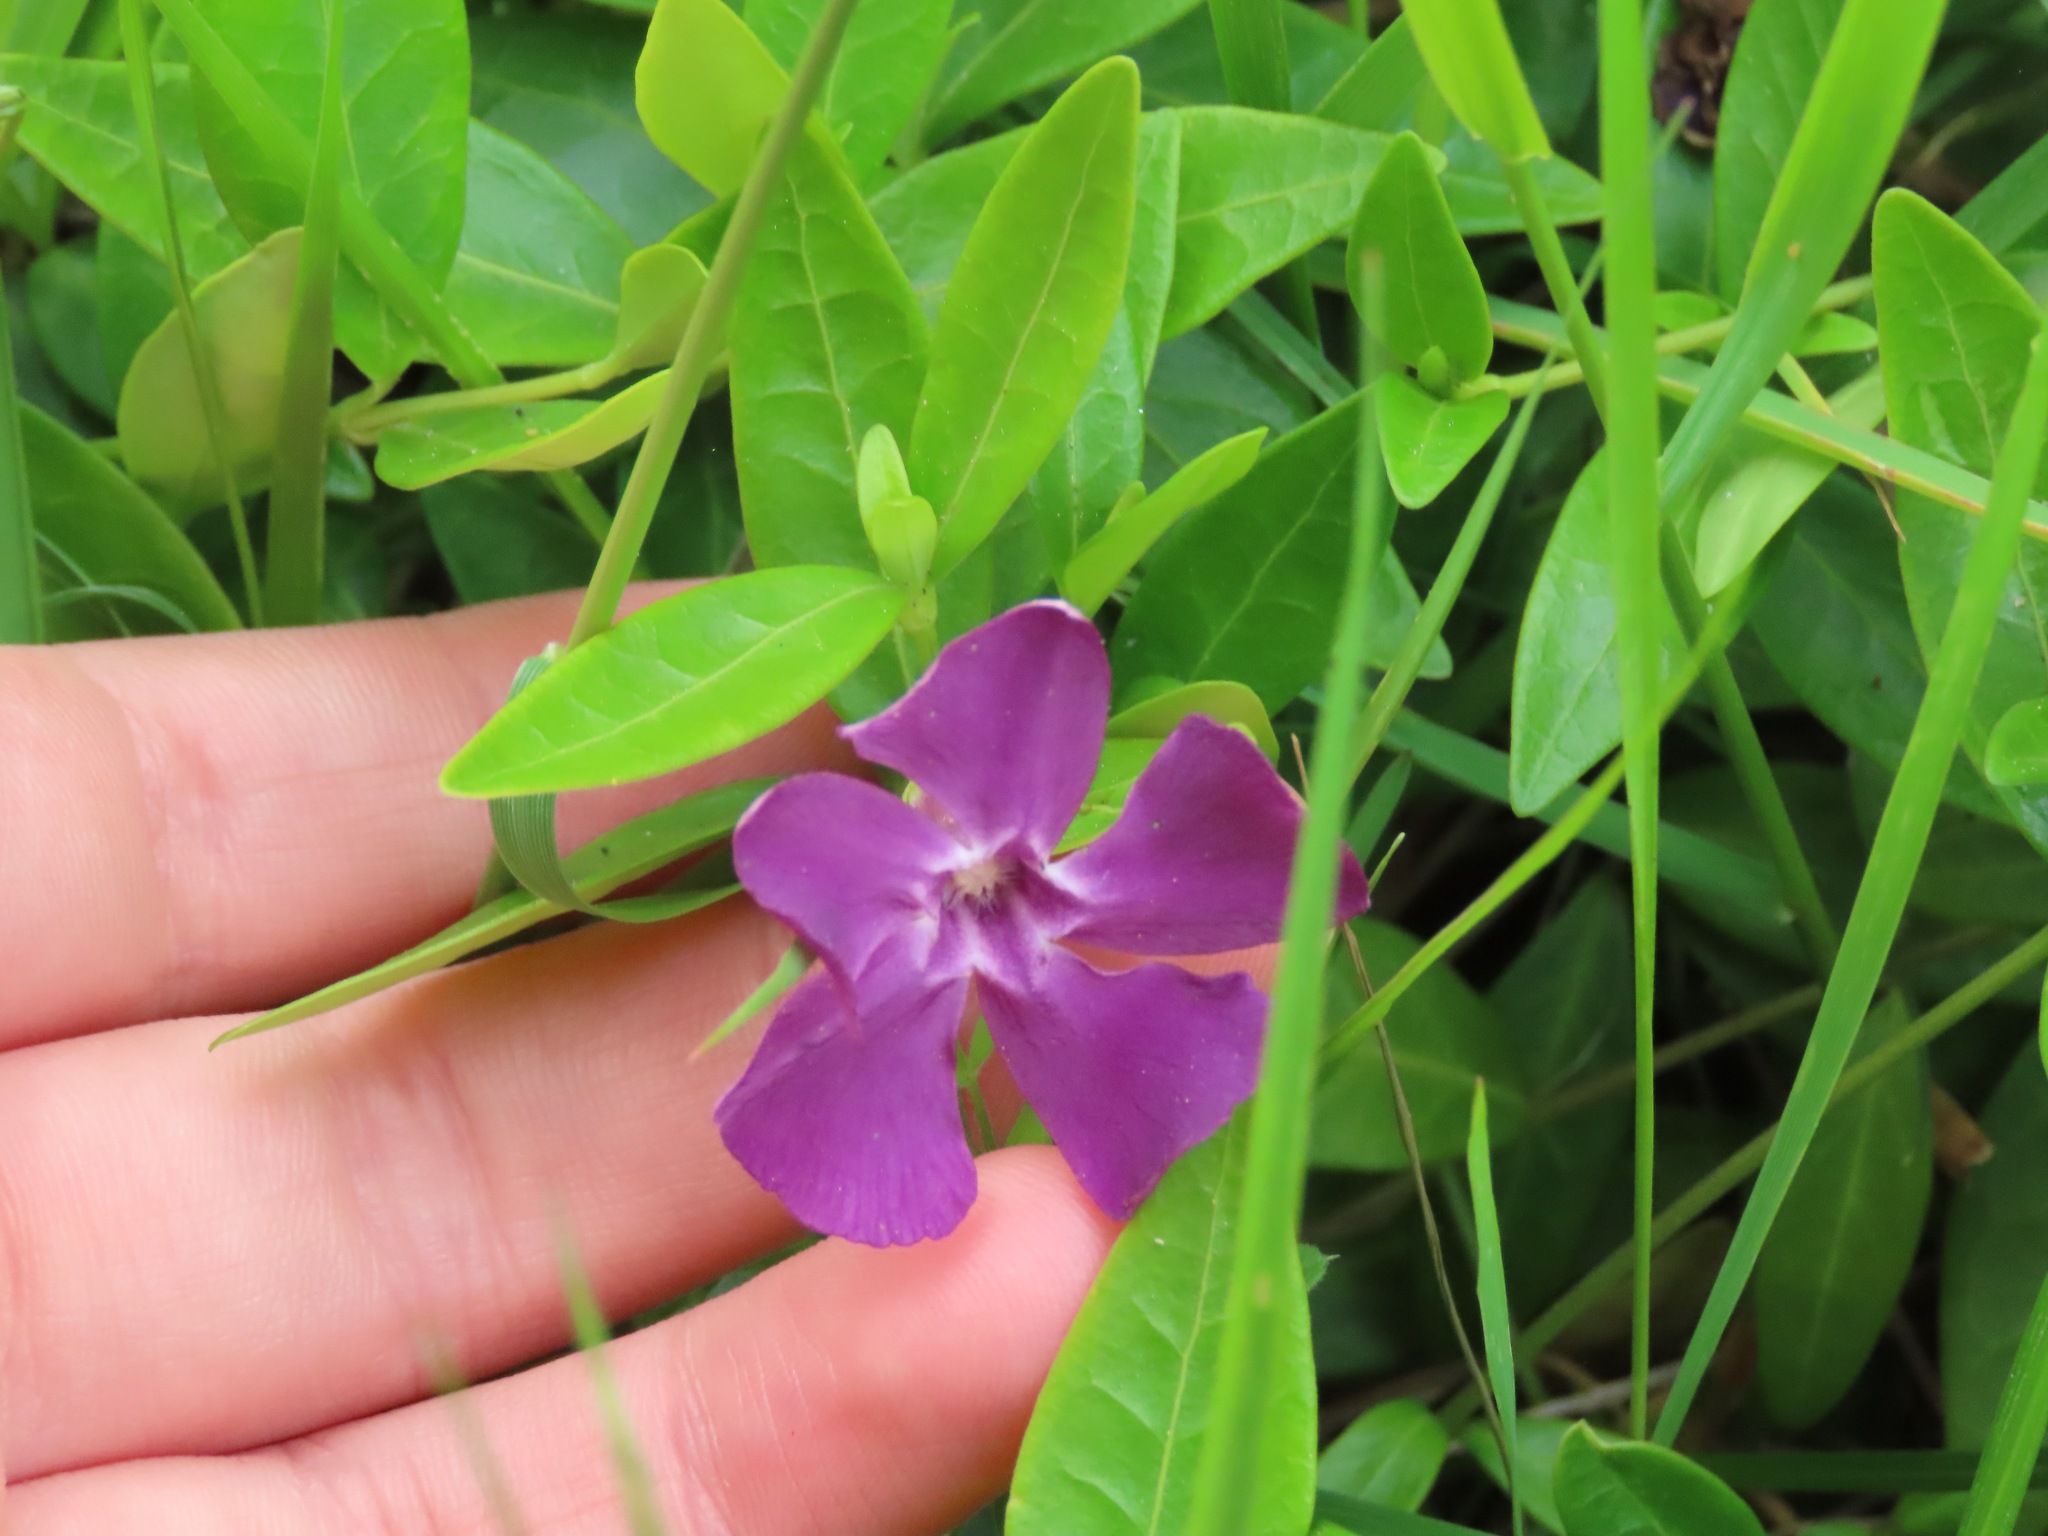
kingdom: Plantae
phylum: Tracheophyta
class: Magnoliopsida
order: Gentianales
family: Apocynaceae
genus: Vinca
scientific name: Vinca minor
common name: Lesser periwinkle
